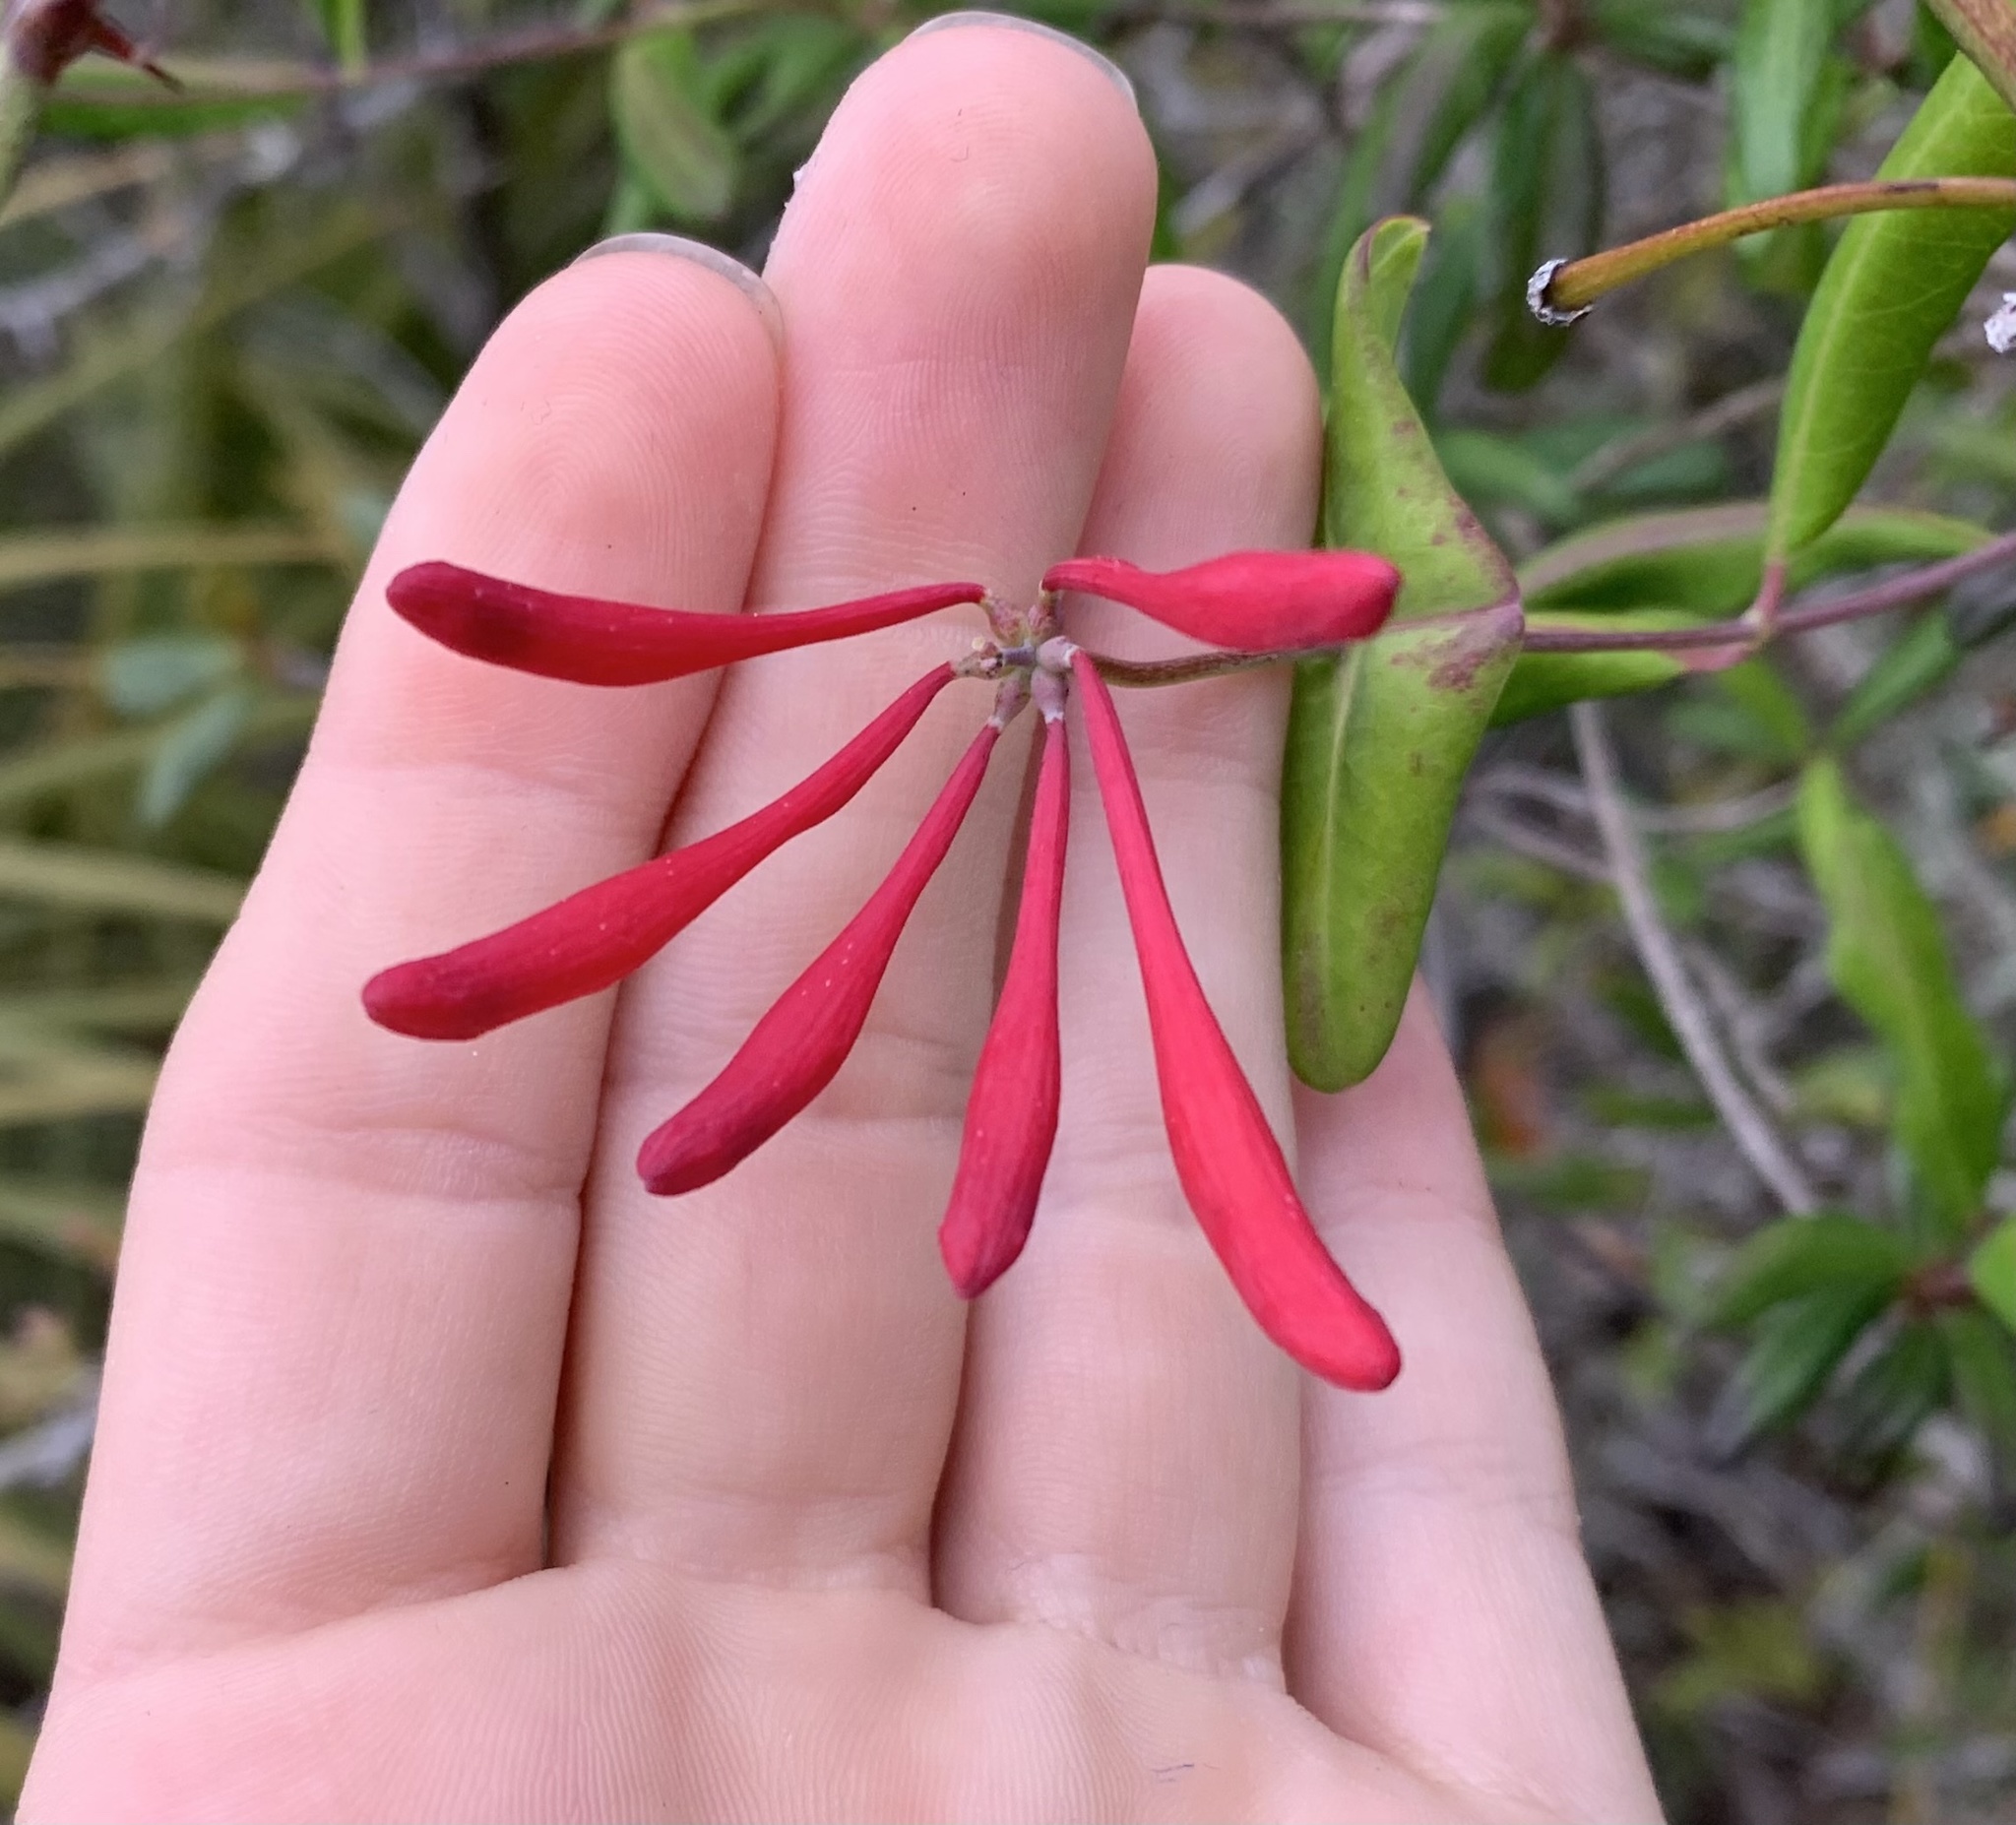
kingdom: Plantae
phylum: Tracheophyta
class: Magnoliopsida
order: Dipsacales
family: Caprifoliaceae
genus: Lonicera
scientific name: Lonicera sempervirens
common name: Coral honeysuckle
